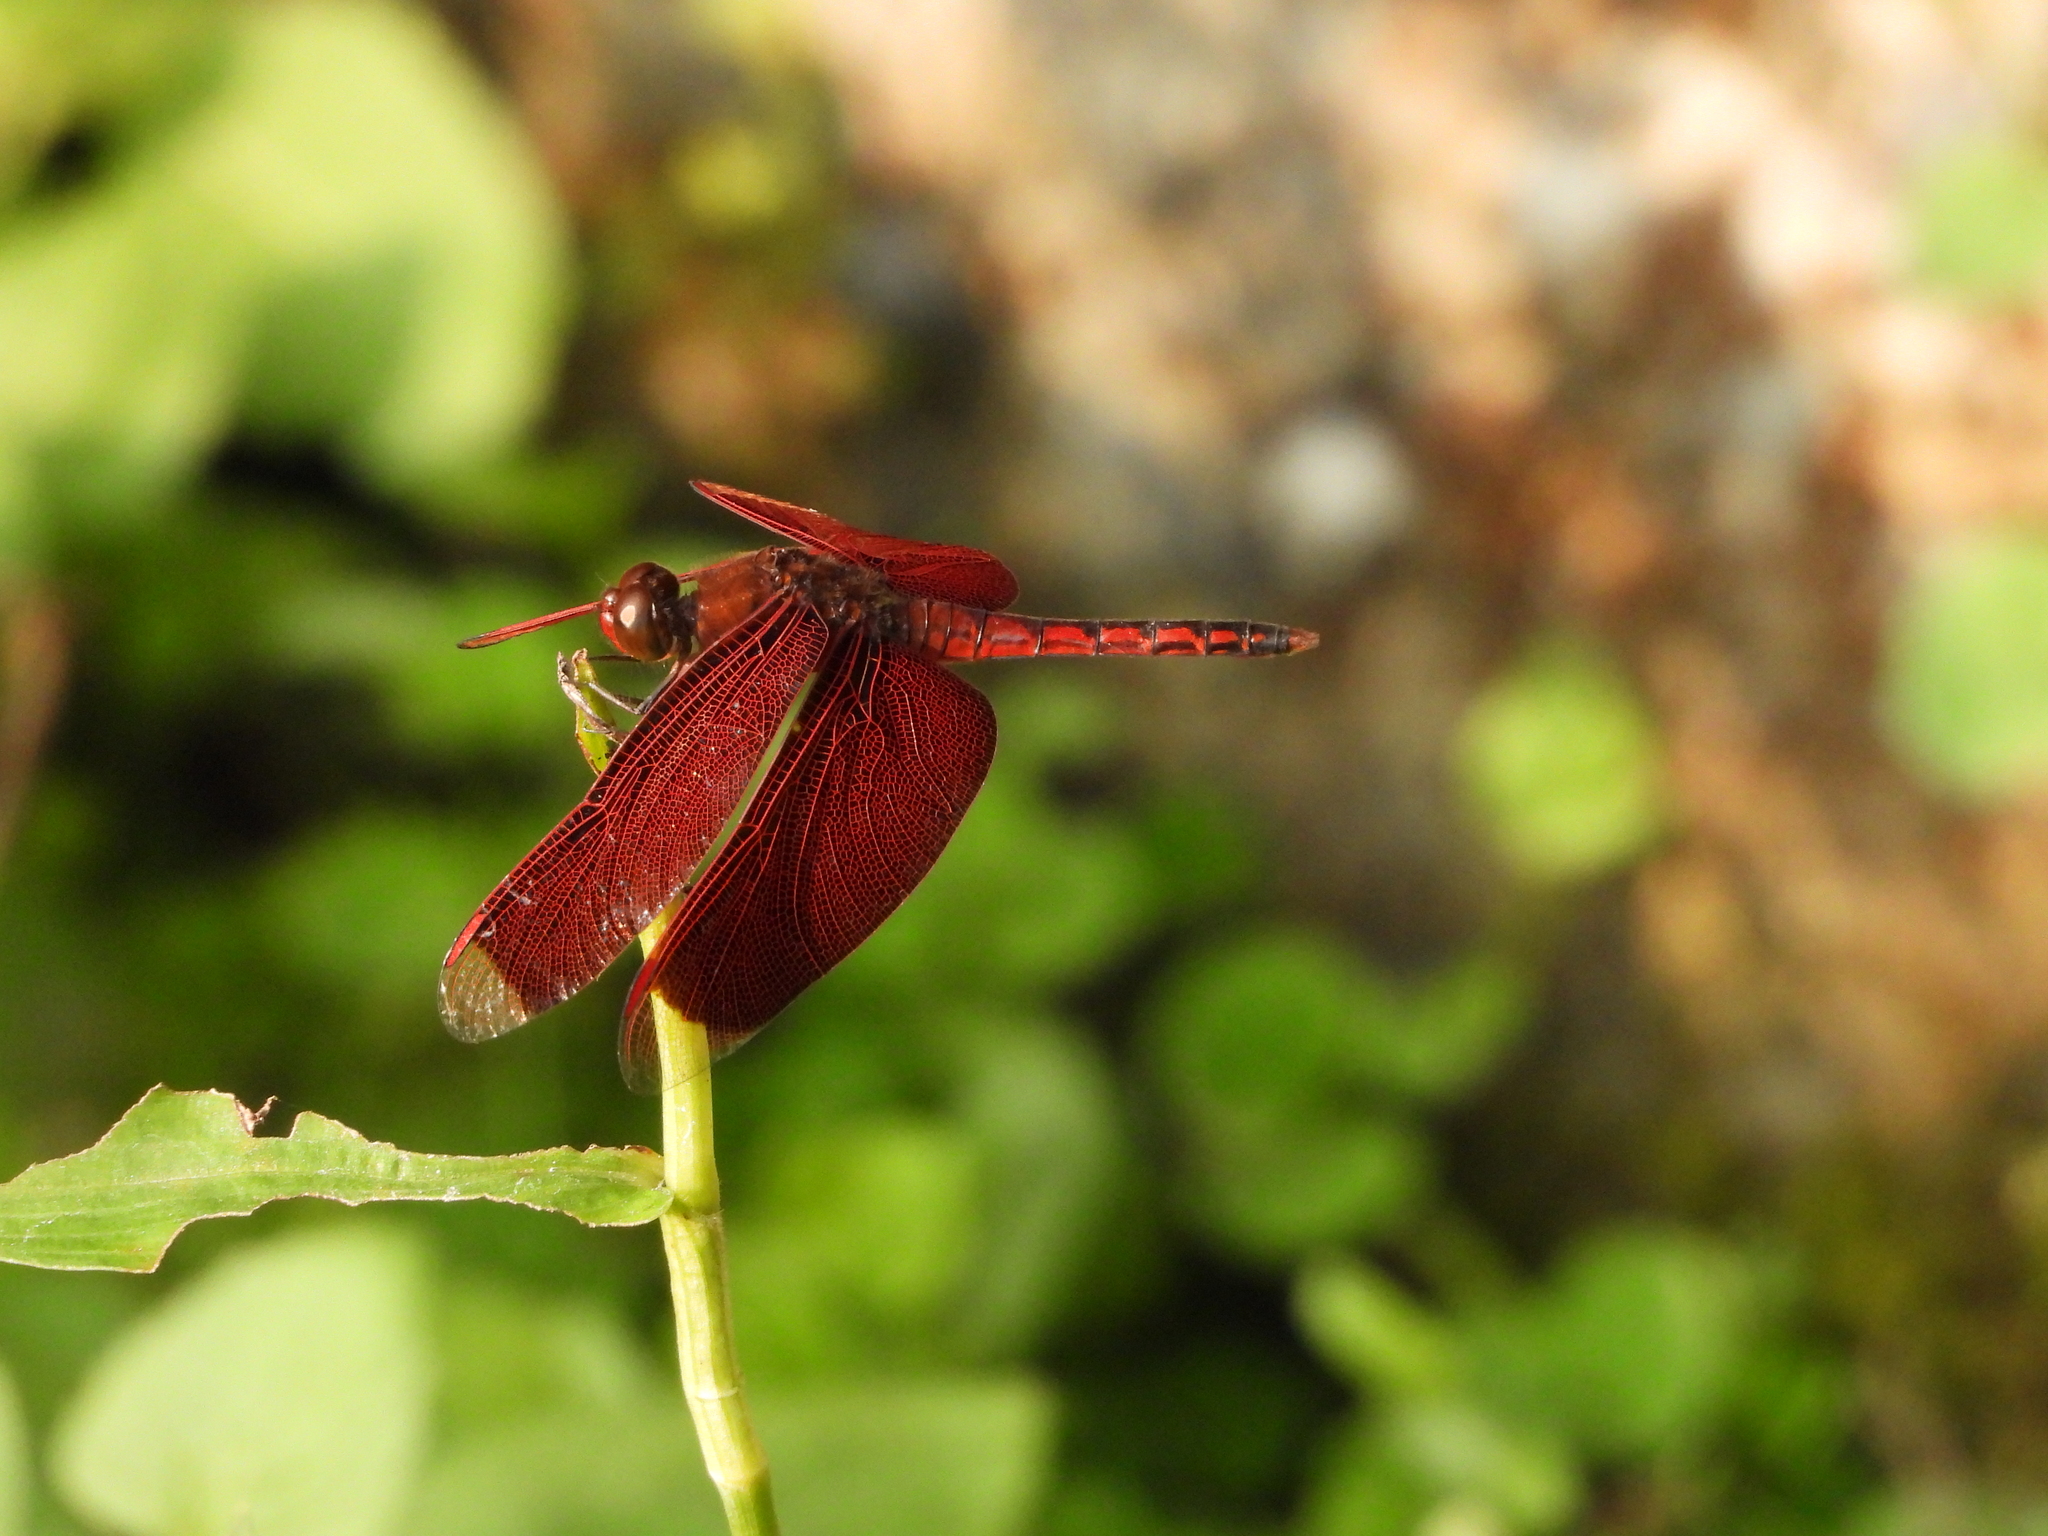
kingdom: Animalia
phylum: Arthropoda
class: Insecta
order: Odonata
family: Libellulidae
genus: Neurothemis
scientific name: Neurothemis taiwanensis
